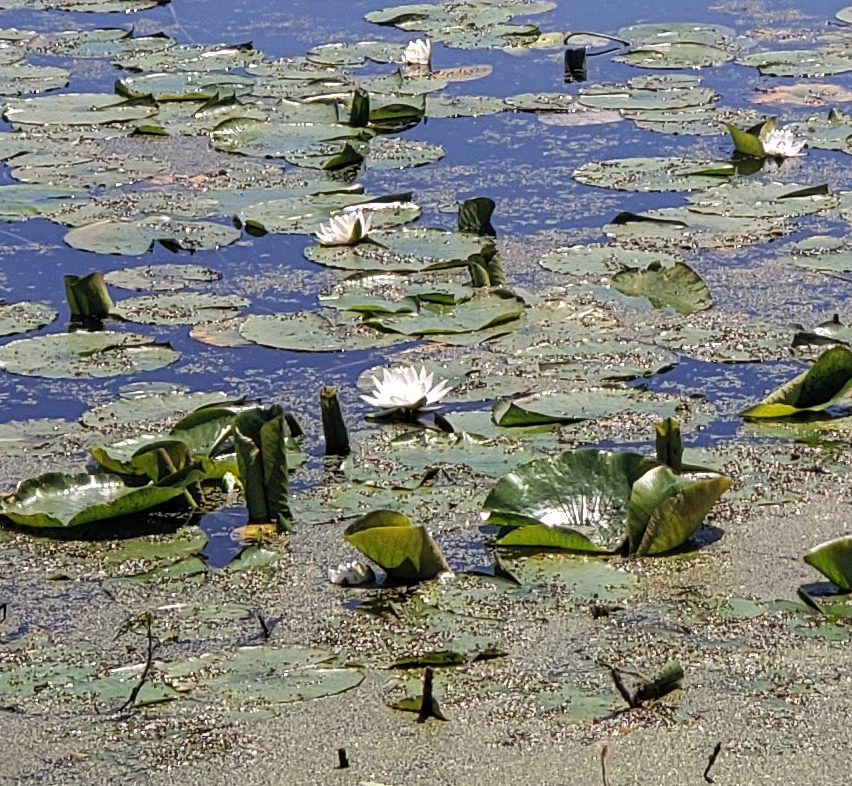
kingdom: Plantae
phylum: Tracheophyta
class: Magnoliopsida
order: Nymphaeales
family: Nymphaeaceae
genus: Nymphaea
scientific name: Nymphaea odorata
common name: Fragrant water-lily
